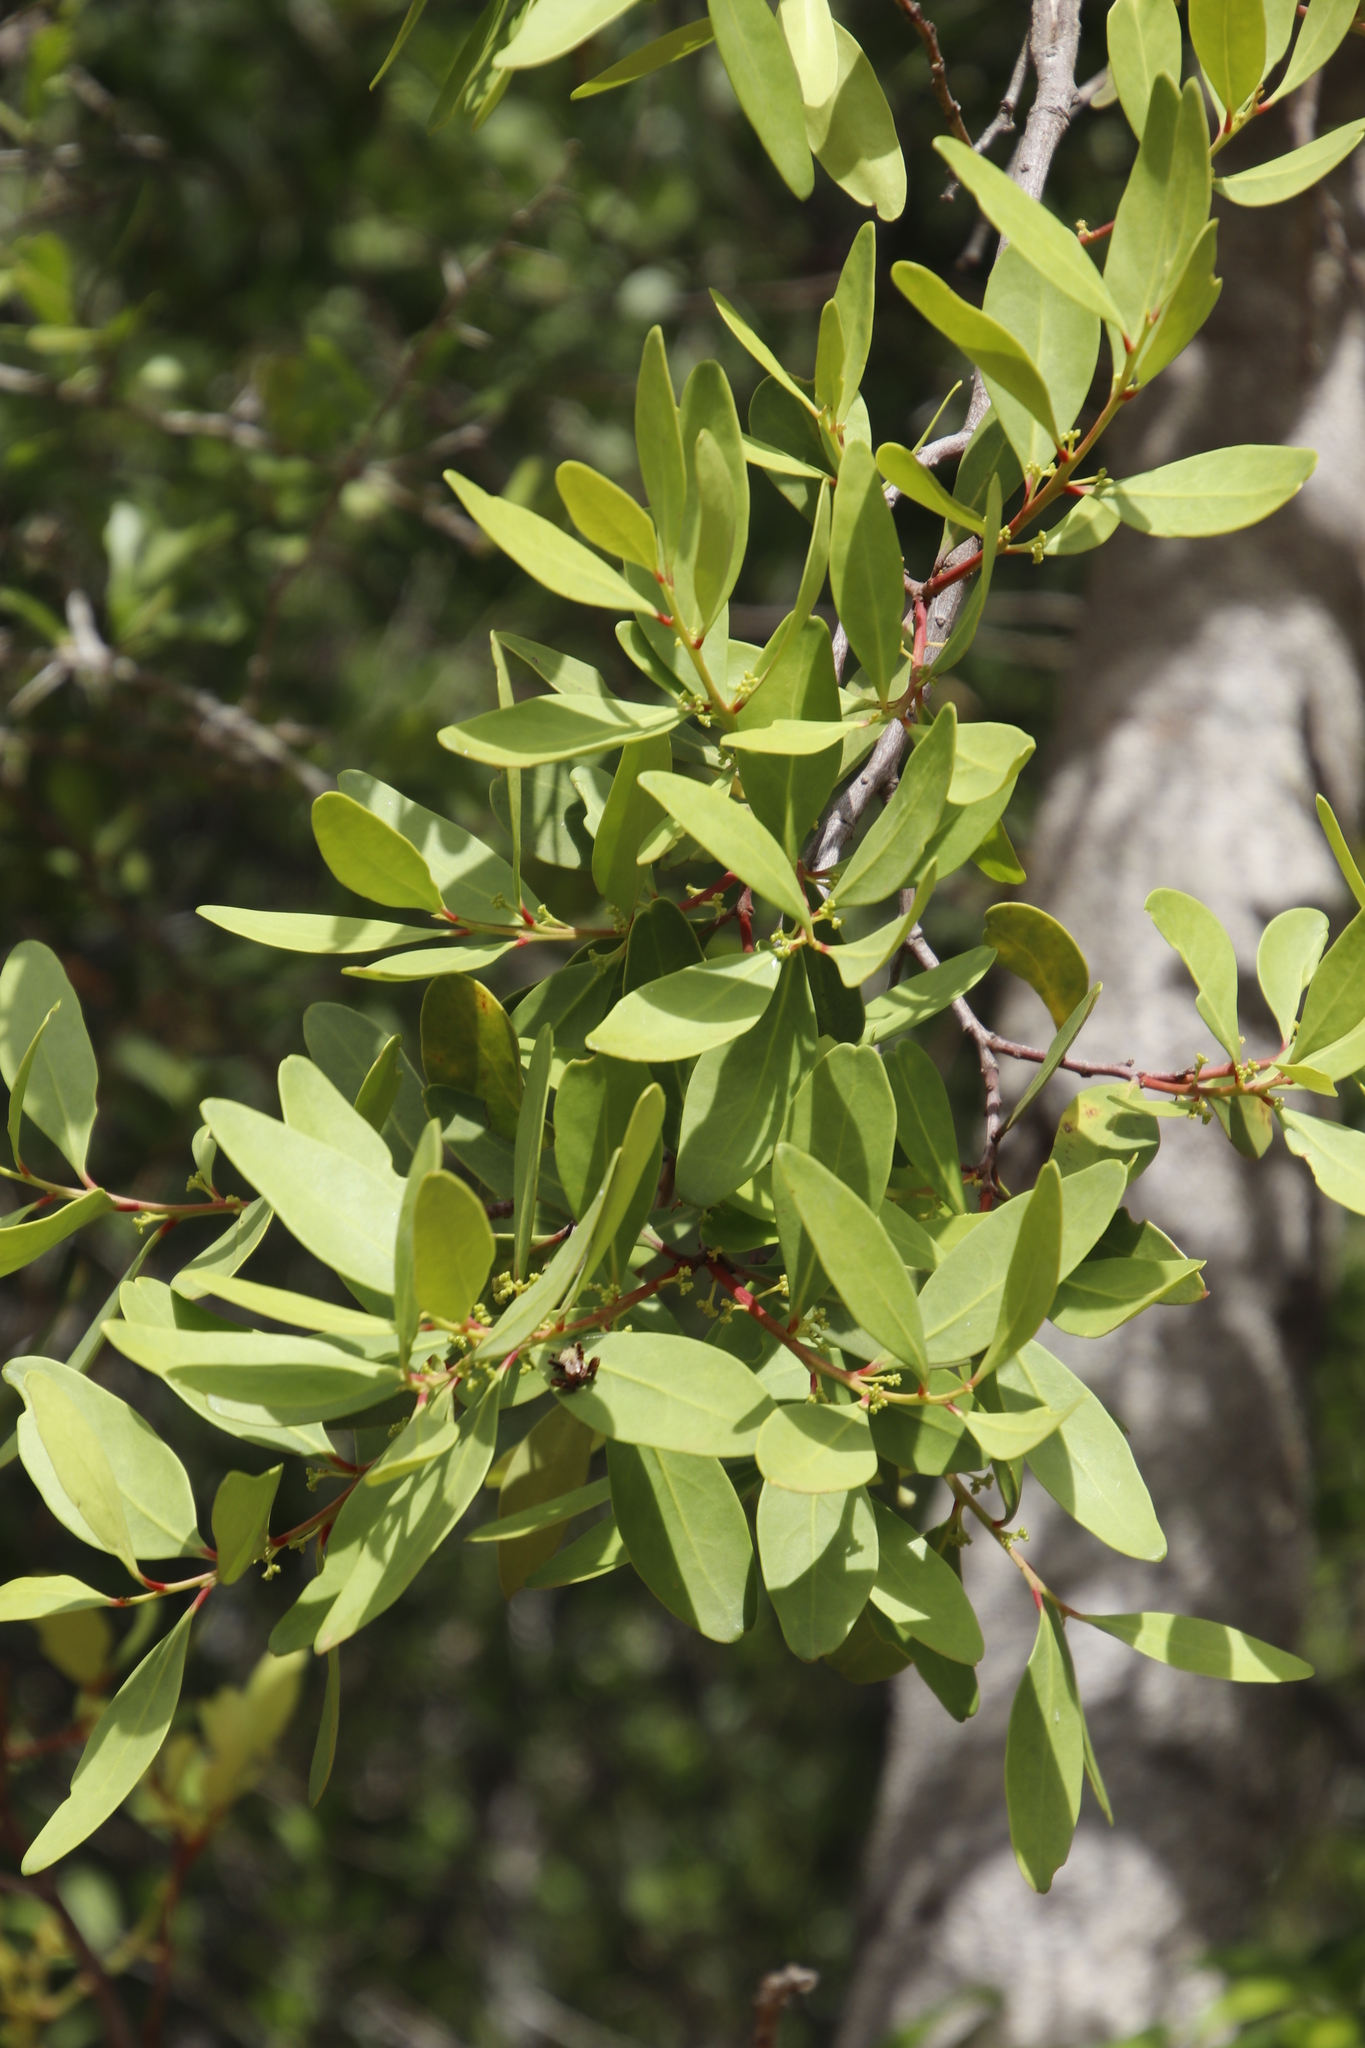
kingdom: Plantae
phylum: Tracheophyta
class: Magnoliopsida
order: Celastrales
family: Celastraceae
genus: Pterocelastrus
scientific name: Pterocelastrus tricuspidatus
